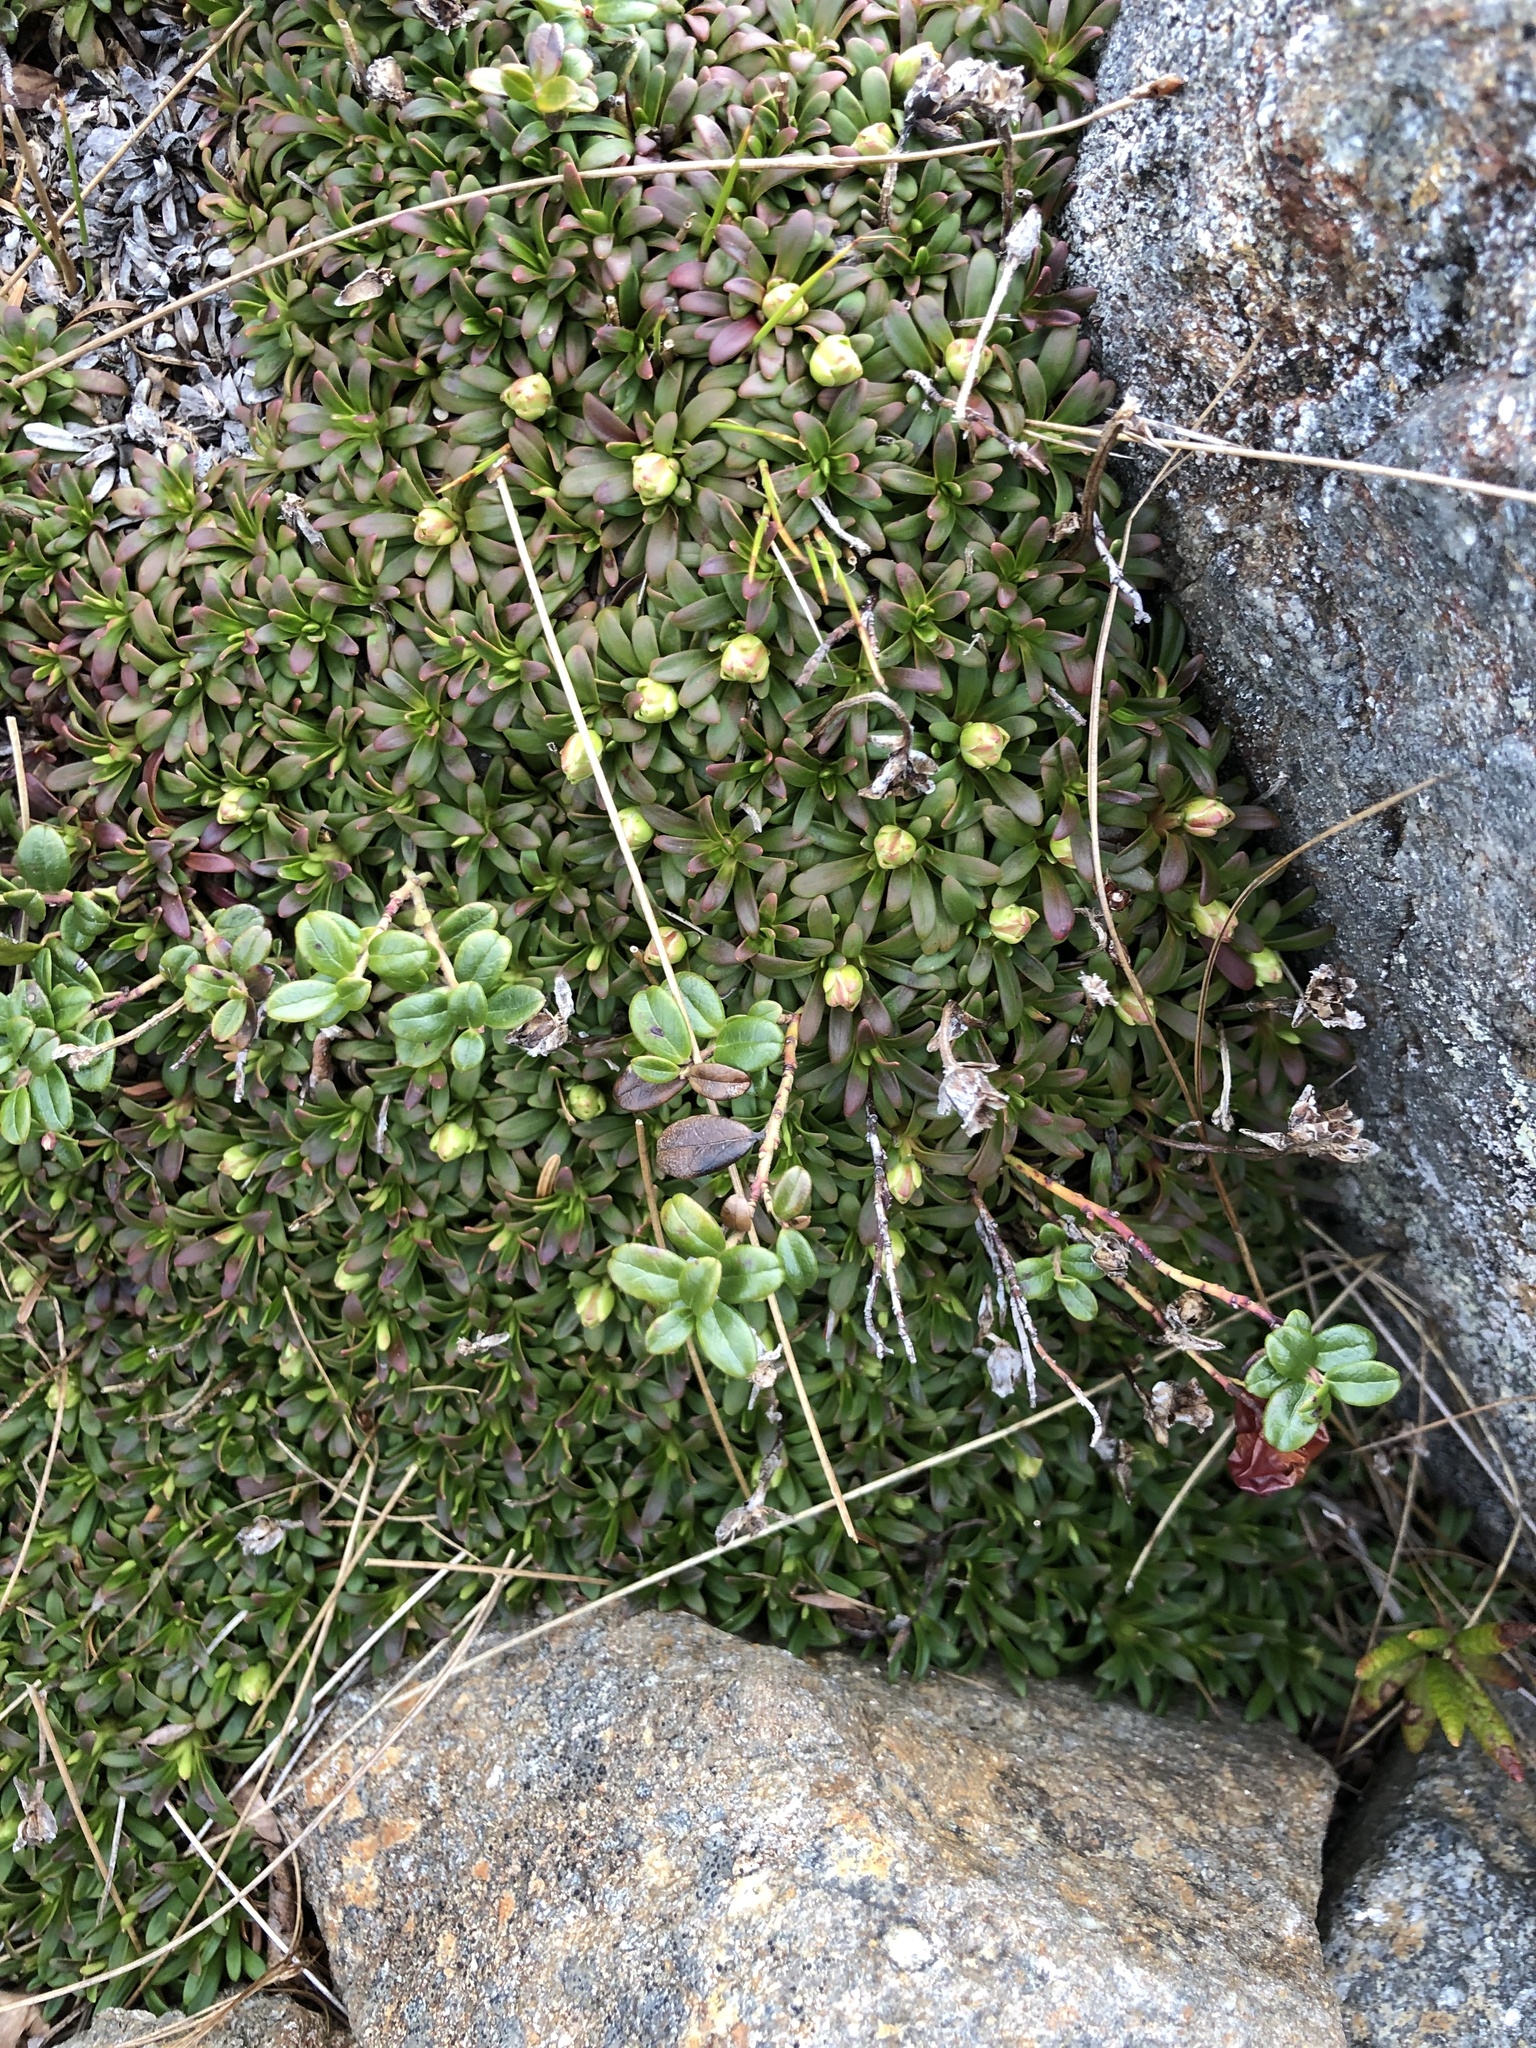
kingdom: Plantae
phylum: Tracheophyta
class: Magnoliopsida
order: Ericales
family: Diapensiaceae
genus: Diapensia
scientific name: Diapensia lapponica
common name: Diapensia
